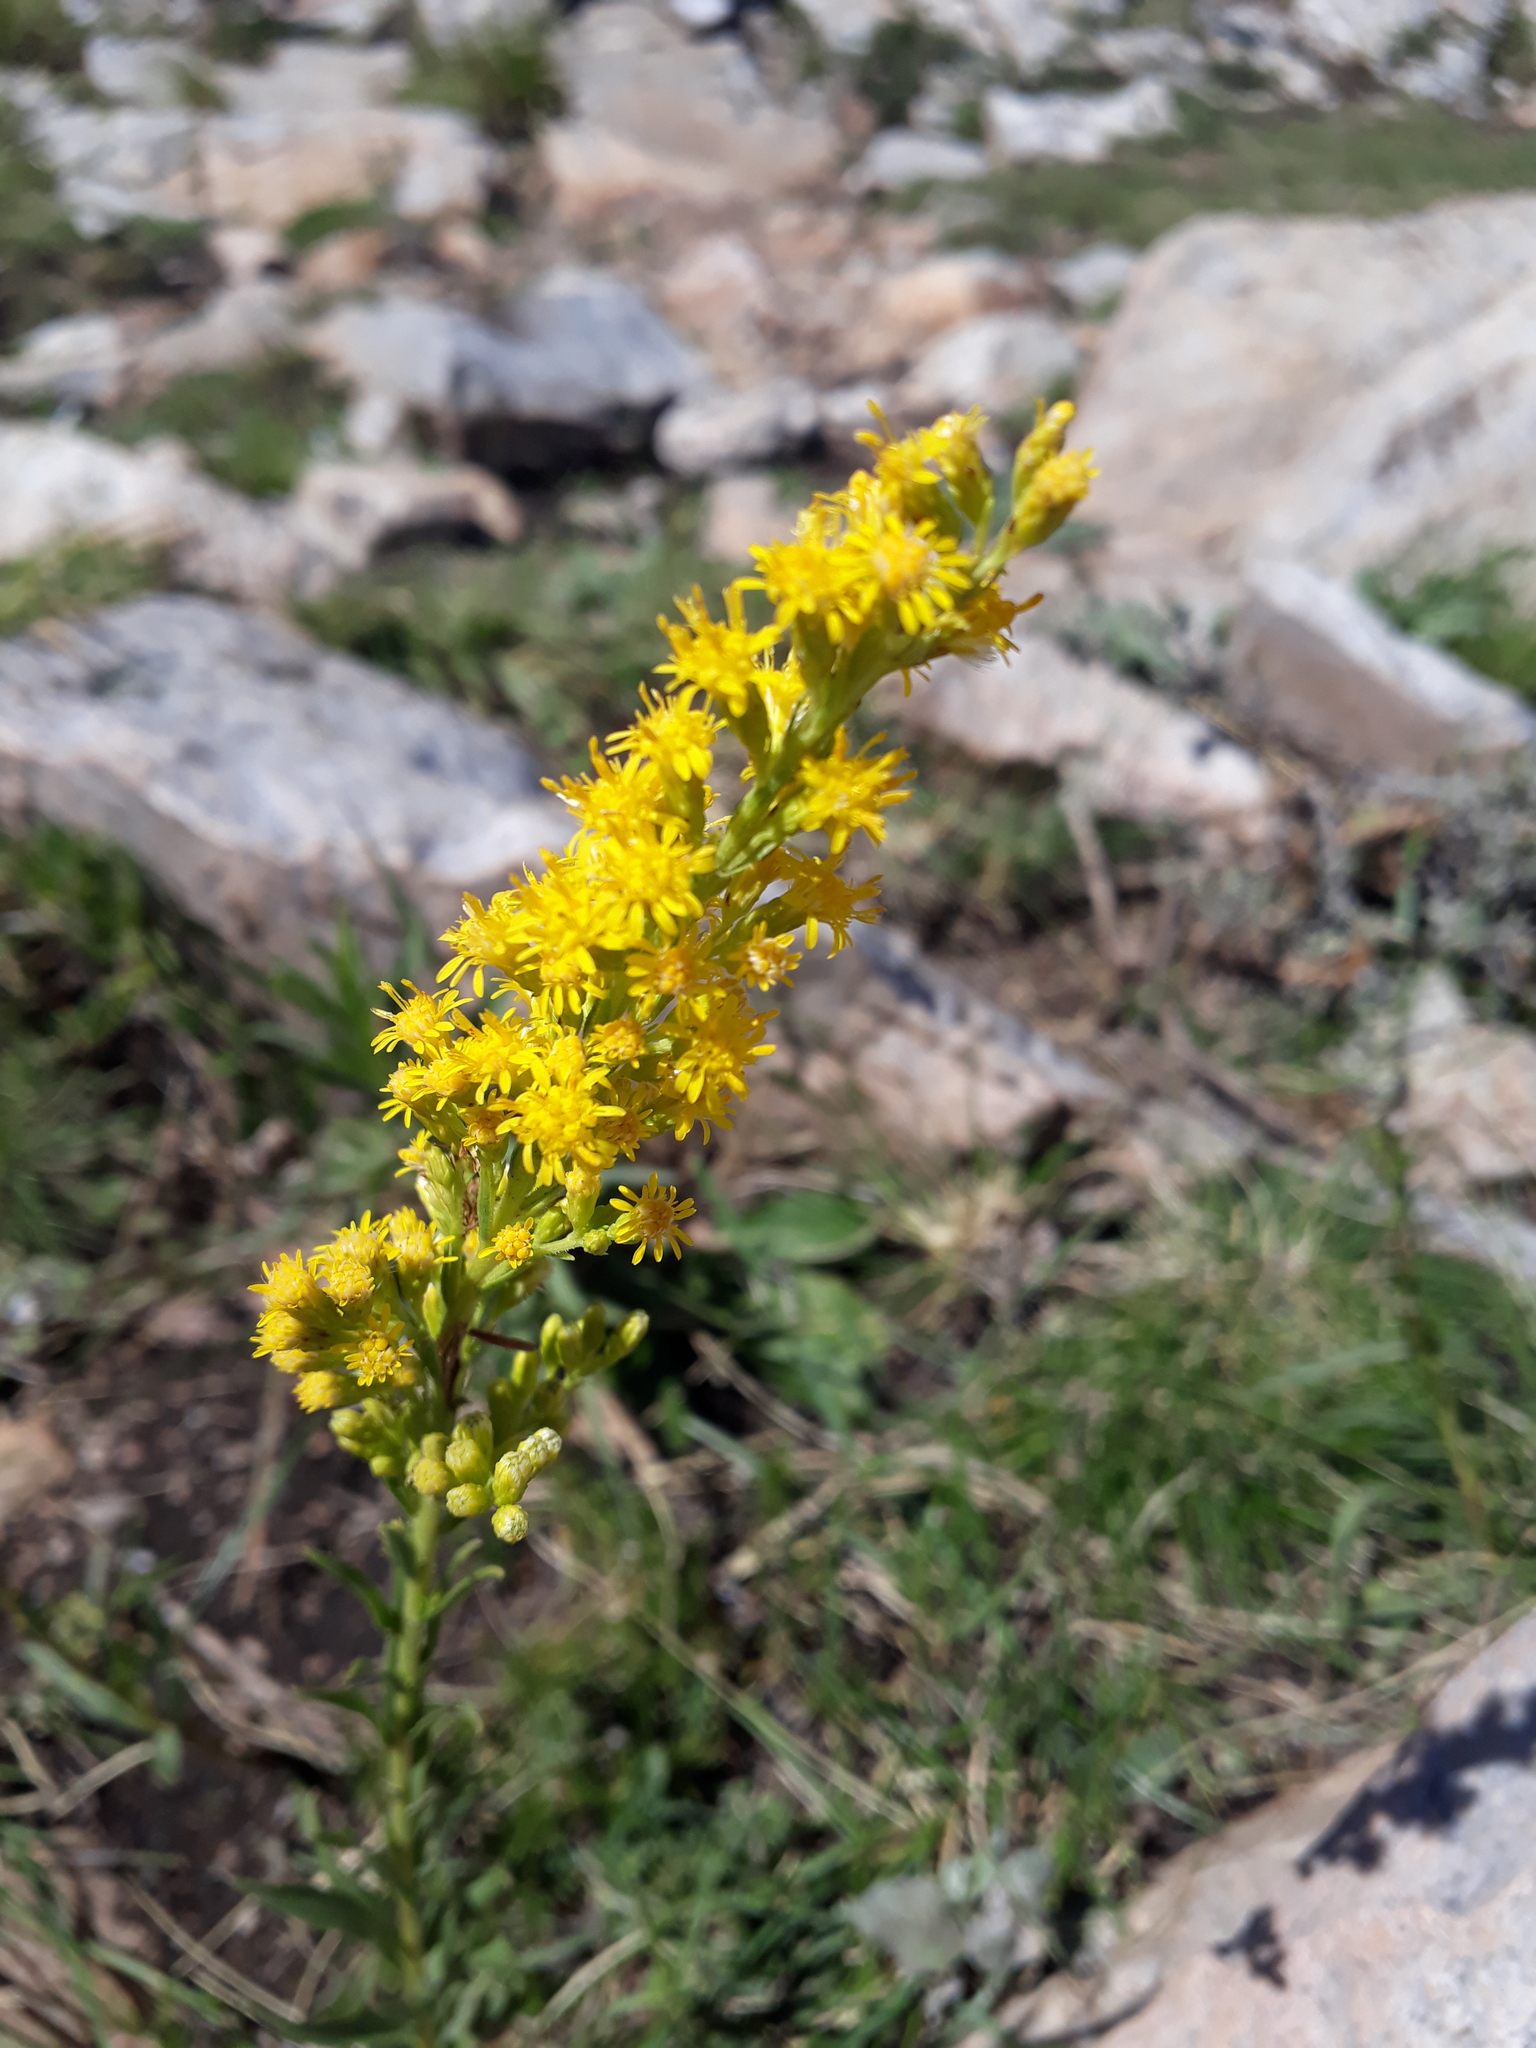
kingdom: Plantae
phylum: Tracheophyta
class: Magnoliopsida
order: Asterales
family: Asteraceae
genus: Solidago
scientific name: Solidago chilensis
